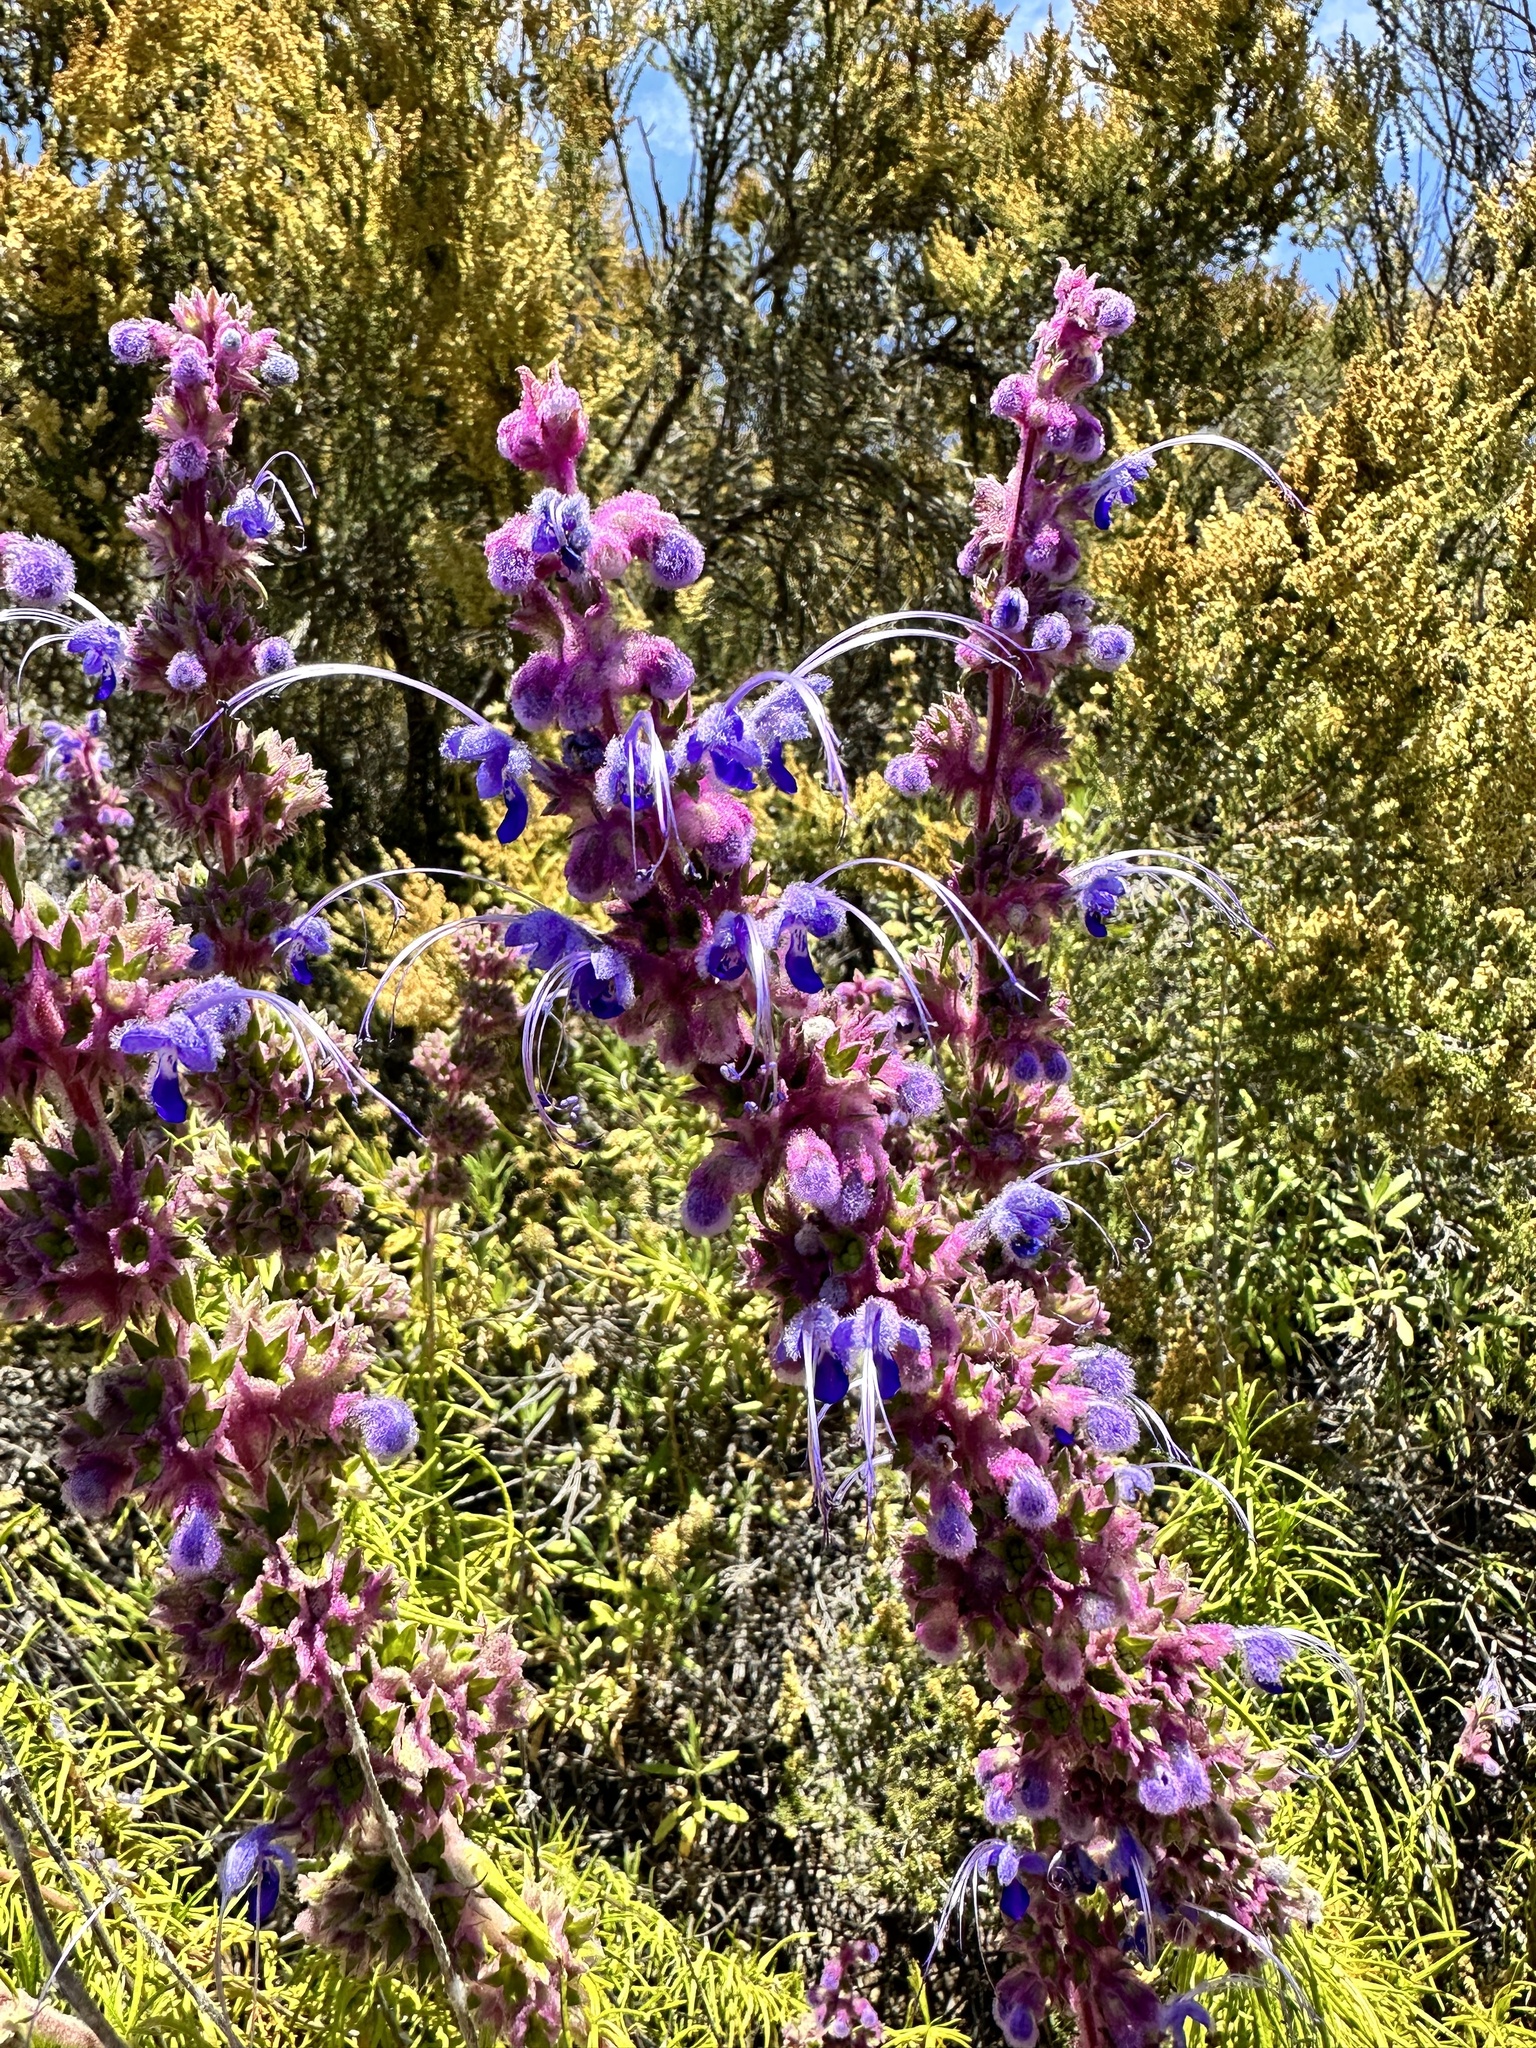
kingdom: Plantae
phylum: Tracheophyta
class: Magnoliopsida
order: Lamiales
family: Lamiaceae
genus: Trichostema
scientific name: Trichostema lanatum
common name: Woolly bluecurls
